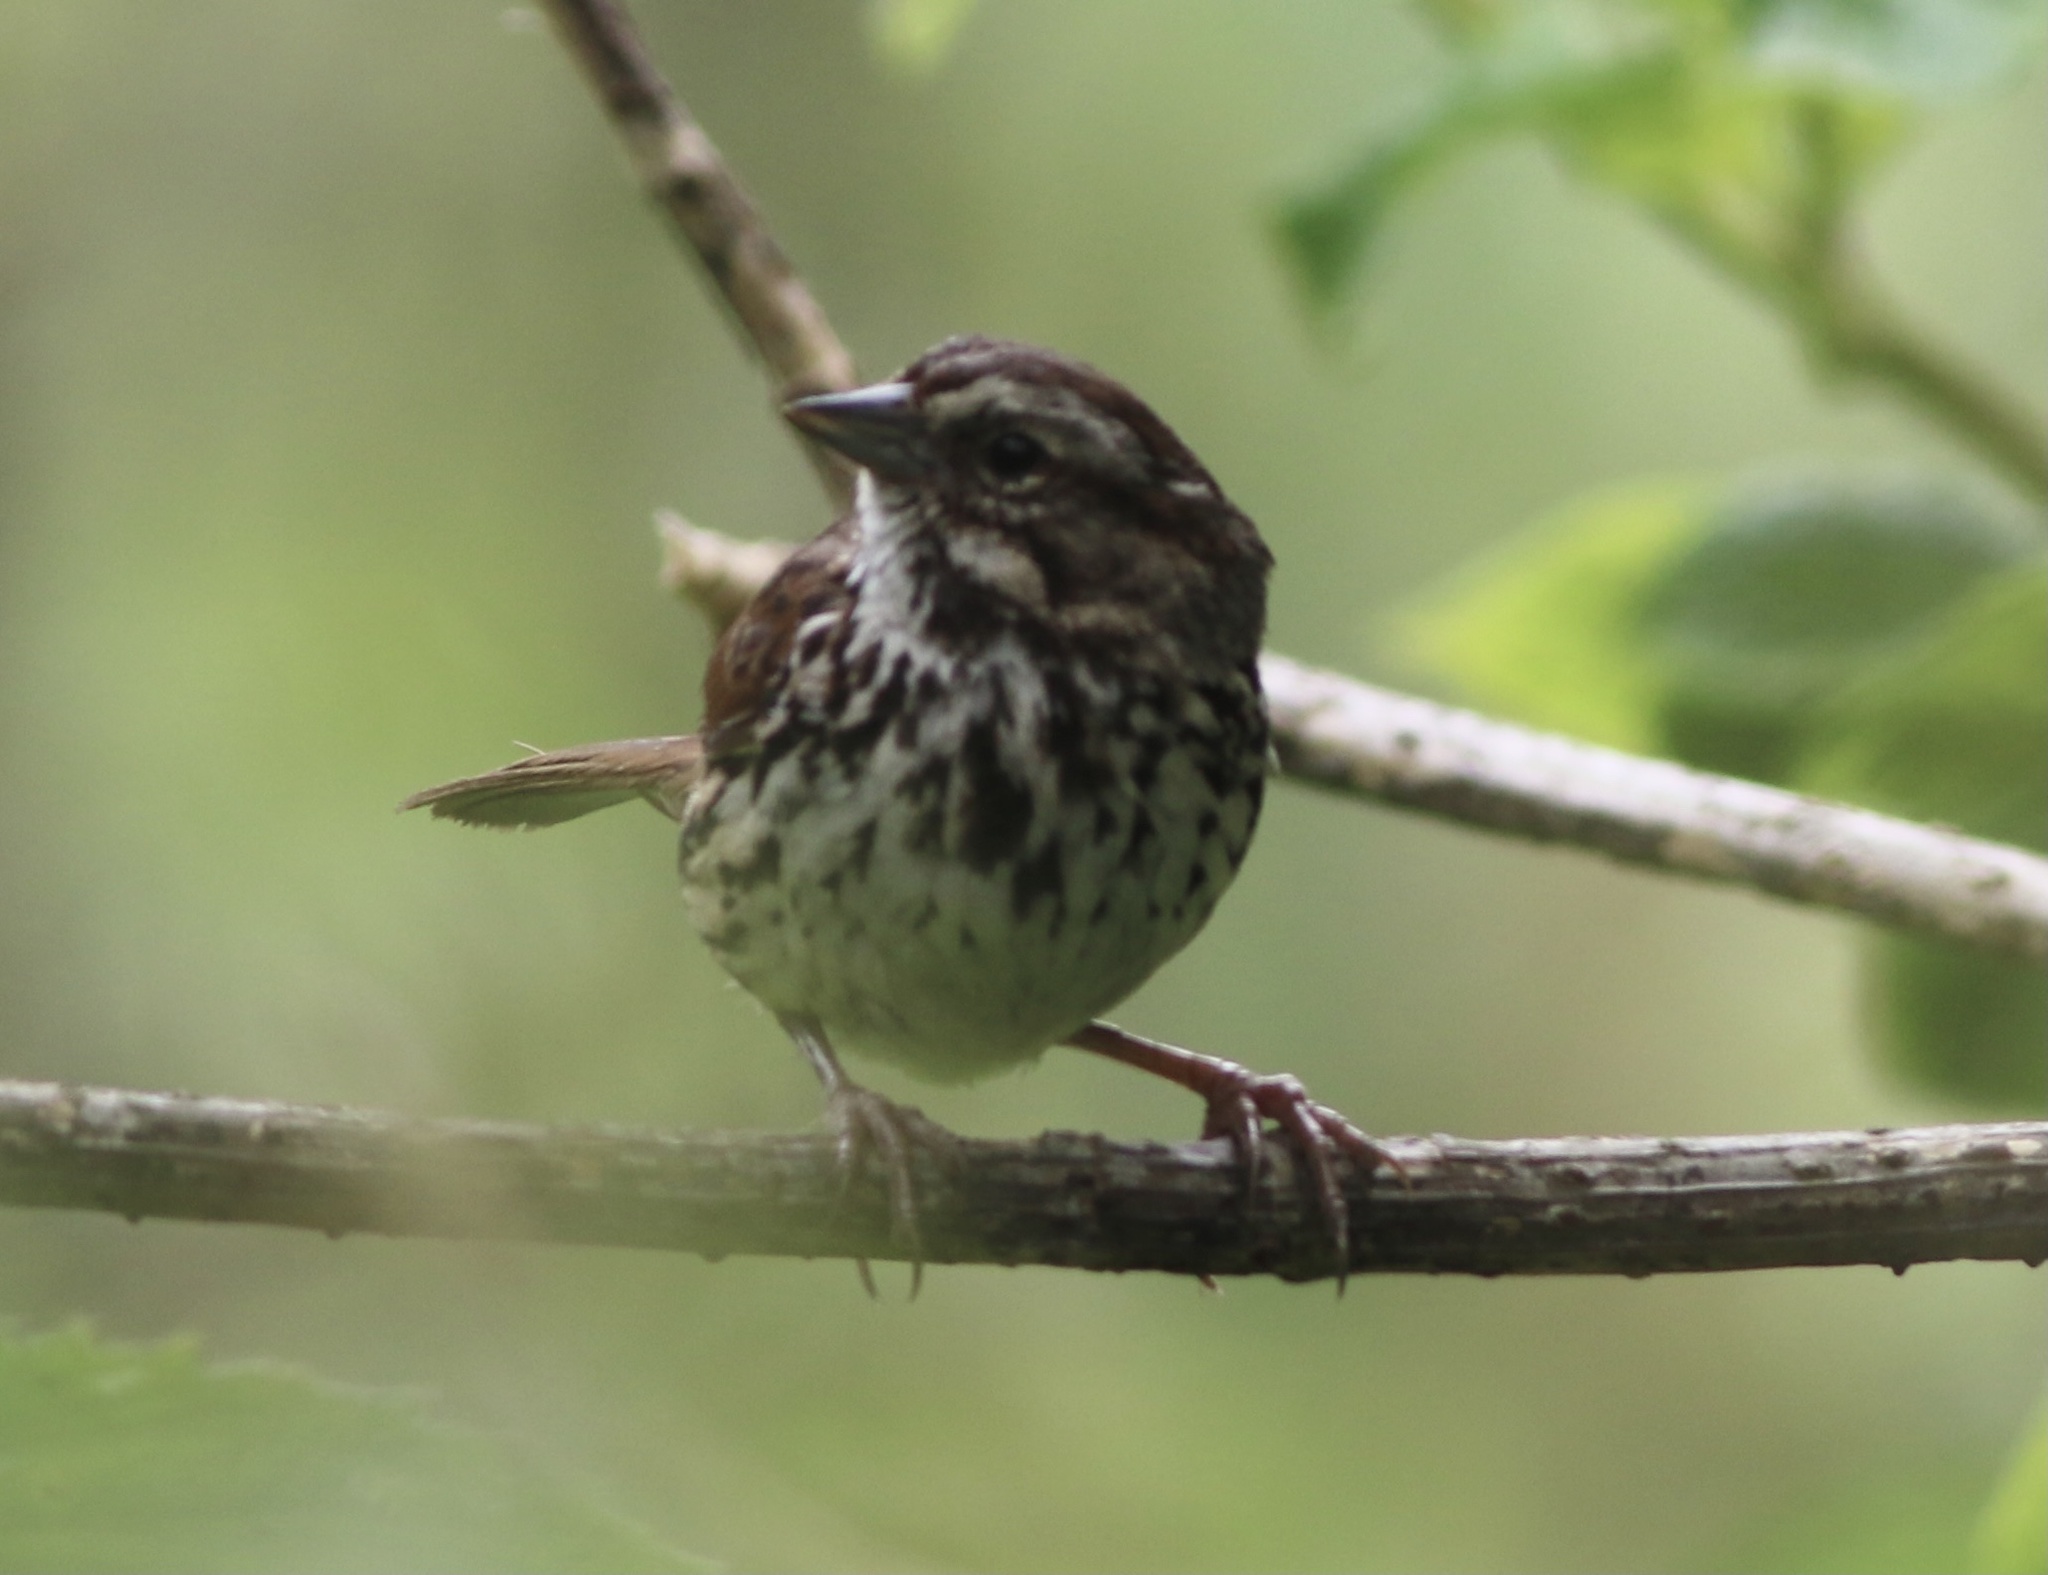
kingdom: Animalia
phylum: Chordata
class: Aves
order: Passeriformes
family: Passerellidae
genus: Melospiza
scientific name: Melospiza melodia
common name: Song sparrow
